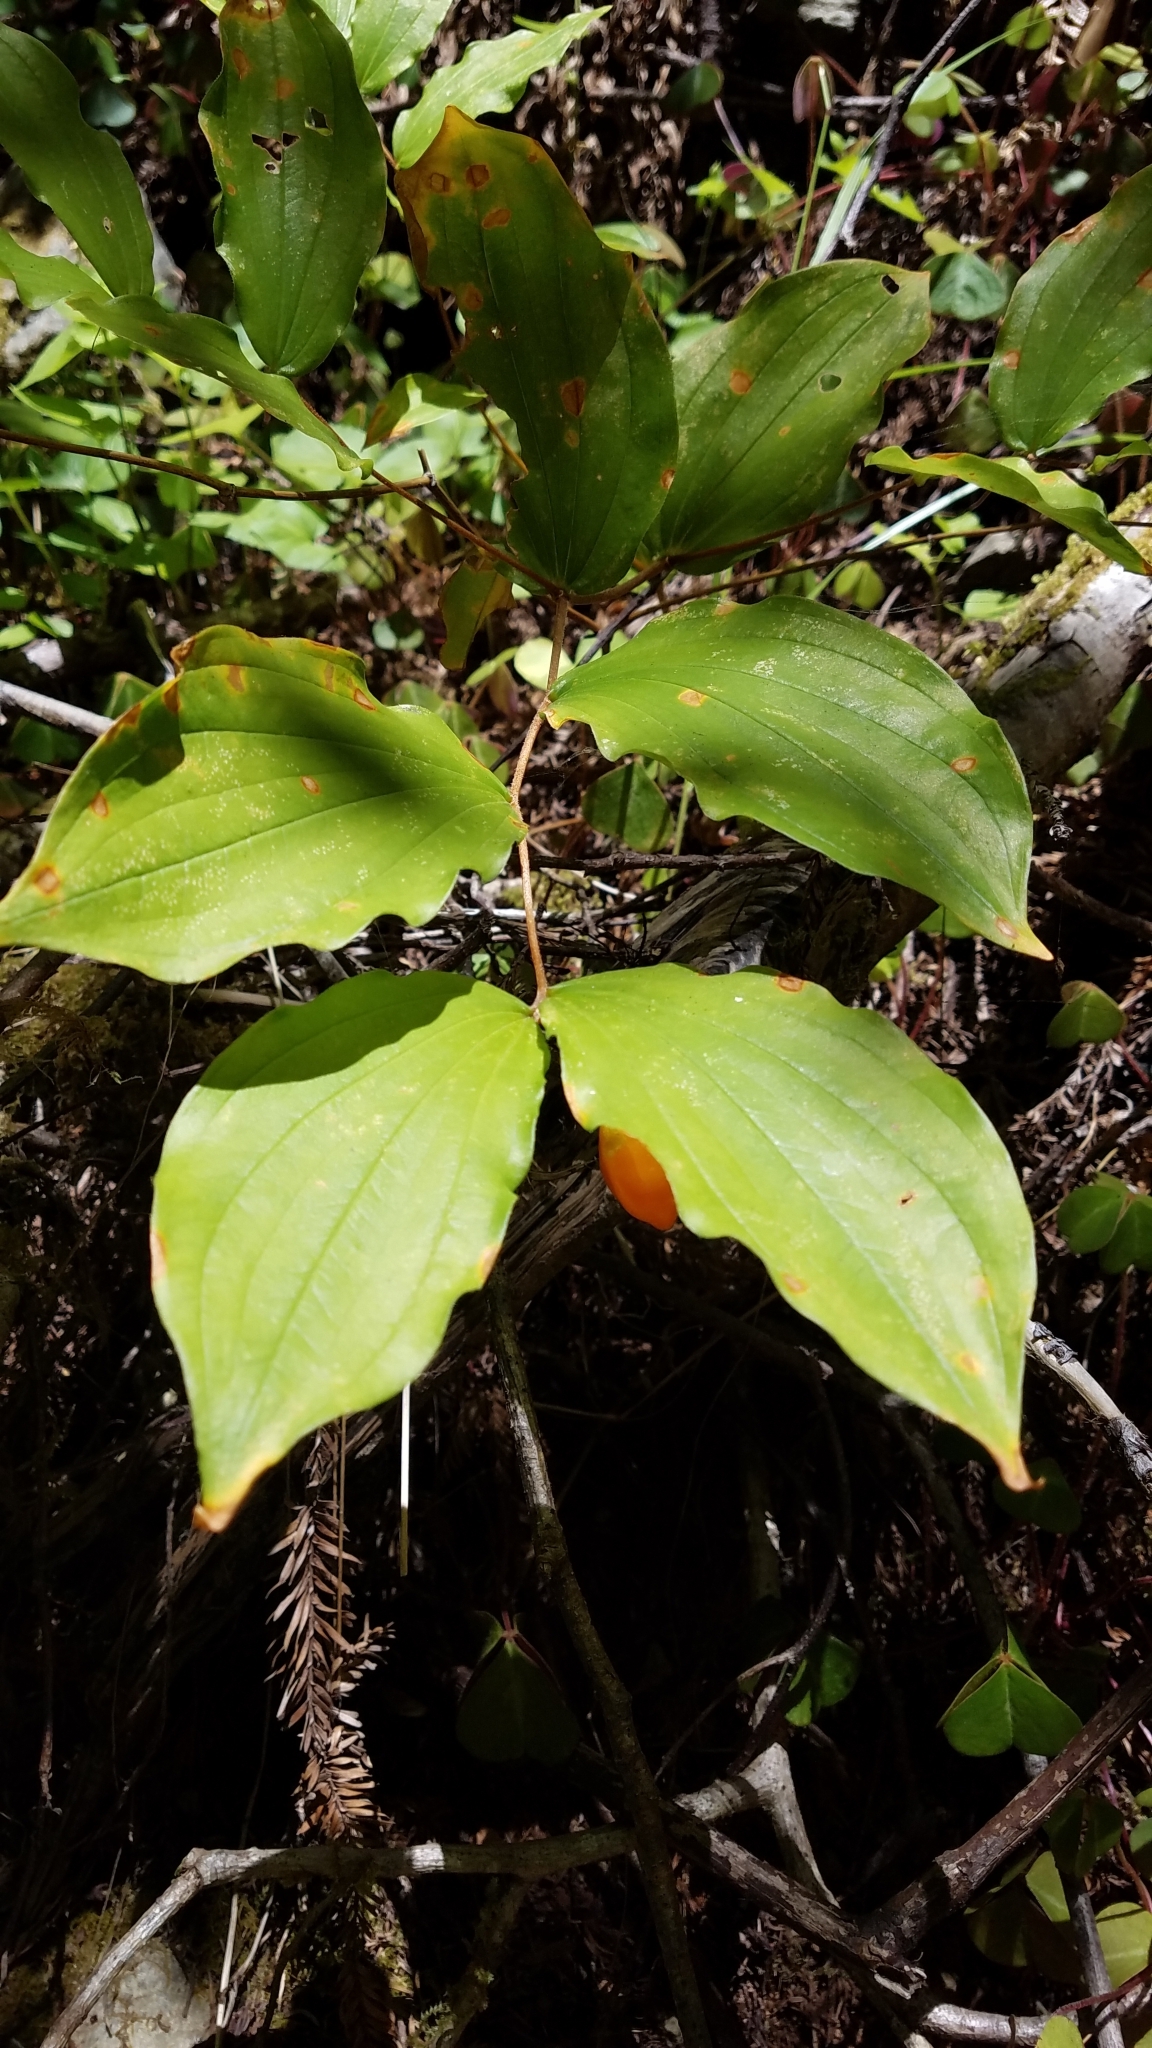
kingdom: Plantae
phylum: Tracheophyta
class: Liliopsida
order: Liliales
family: Liliaceae
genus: Prosartes
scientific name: Prosartes smithii
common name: Fairy-lantern
